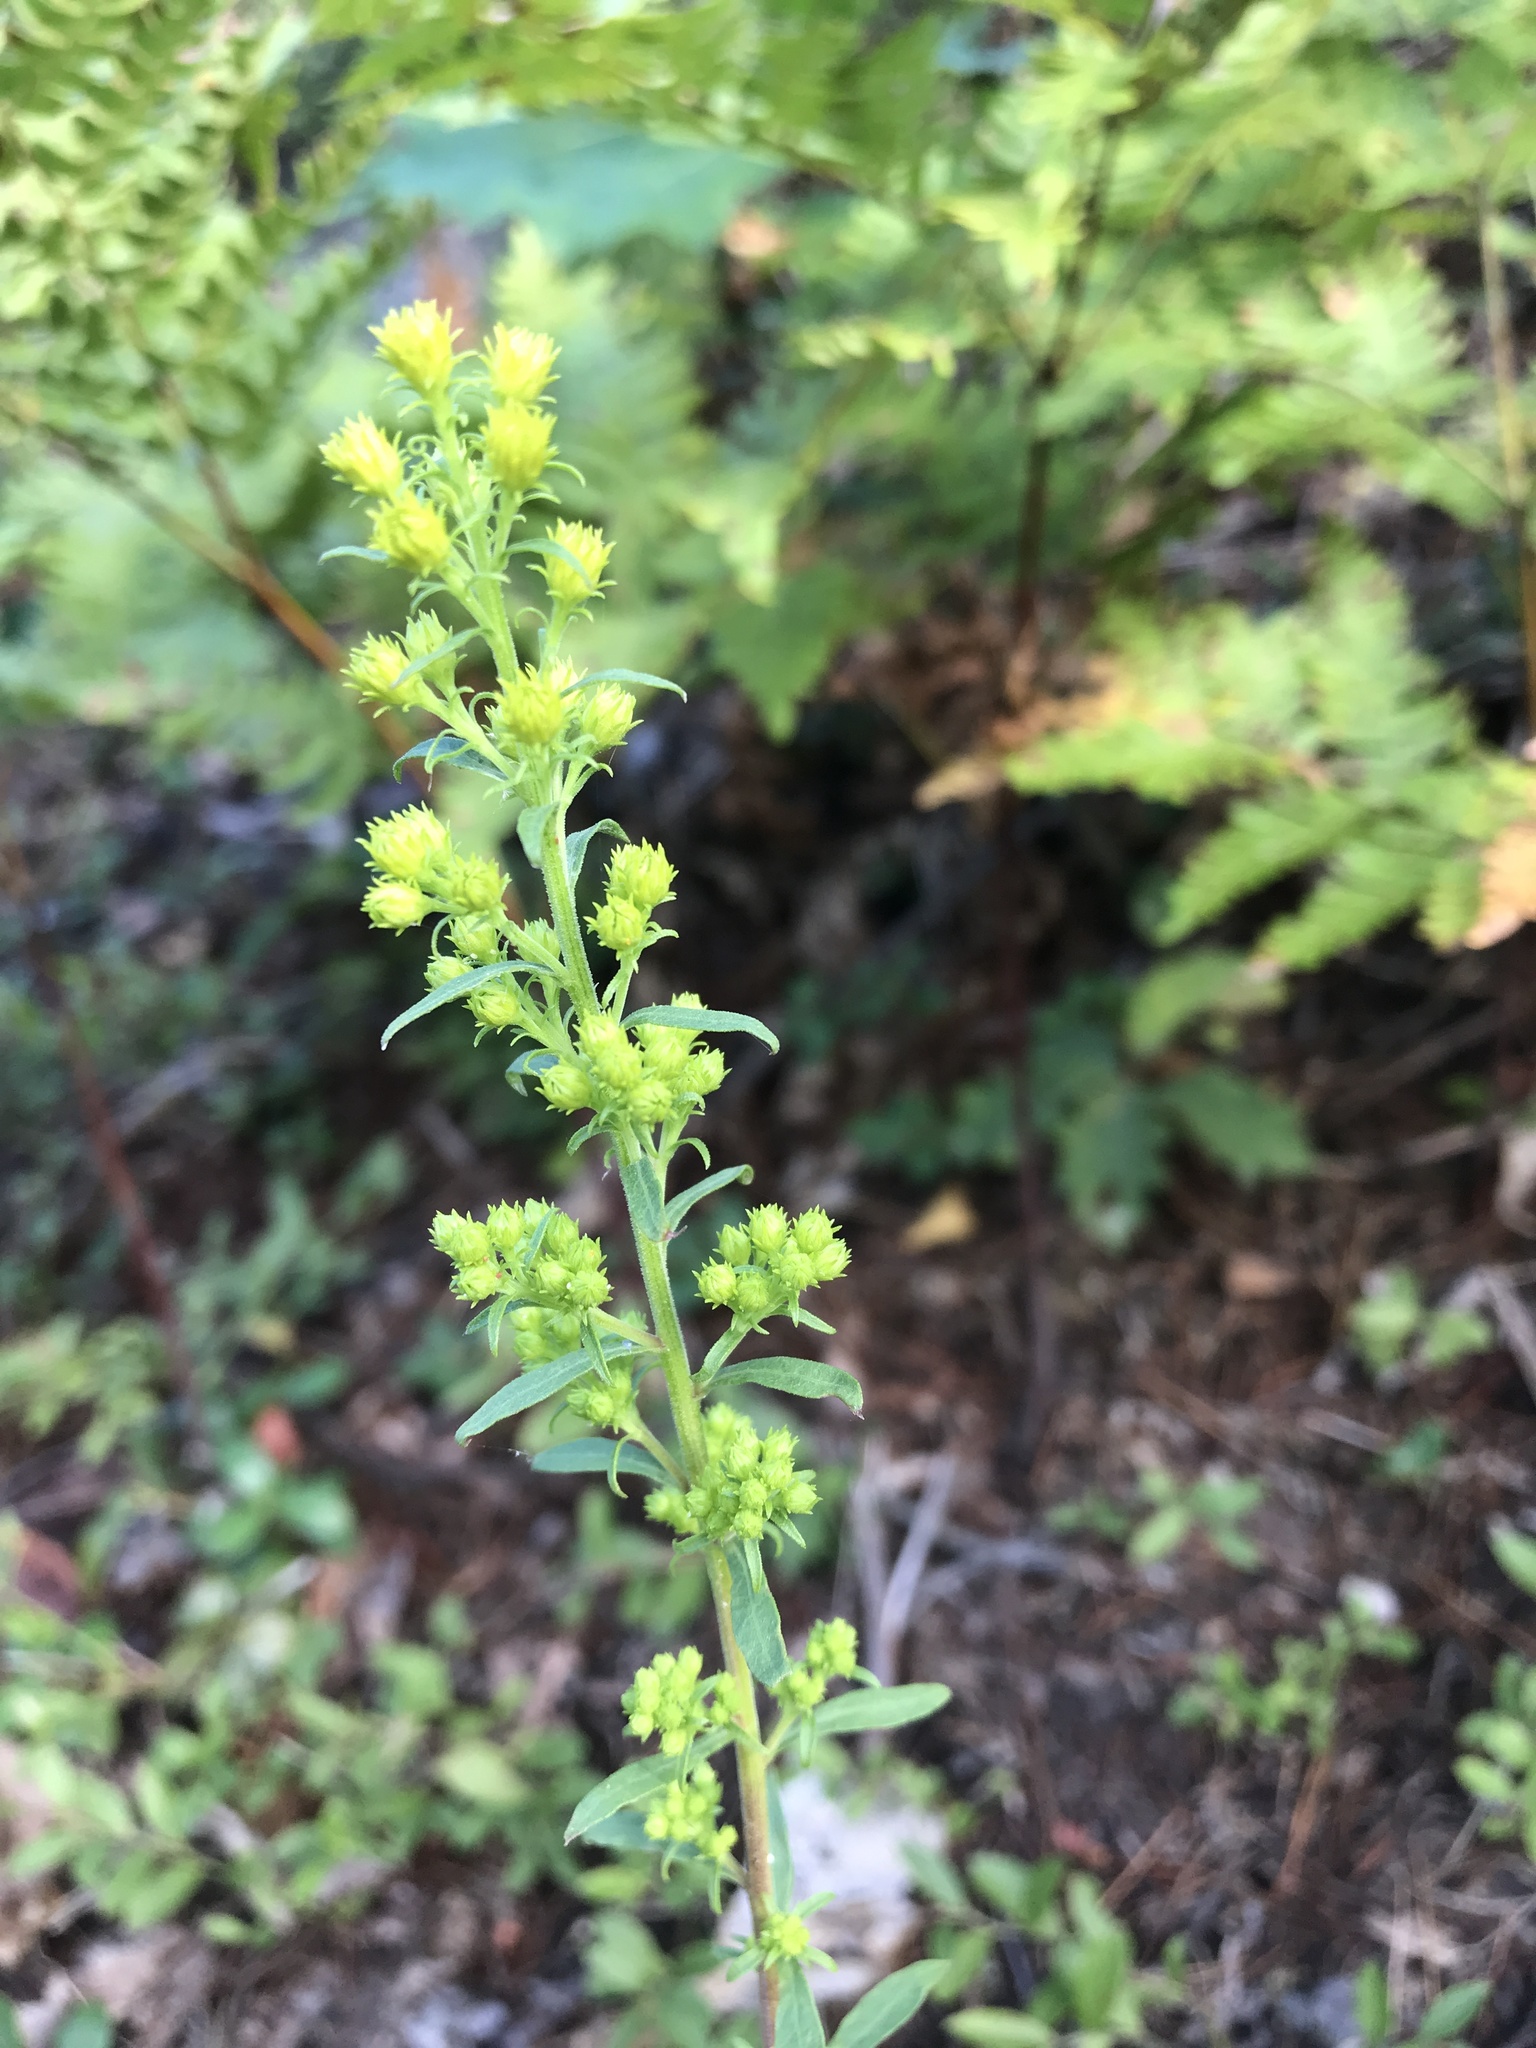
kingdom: Plantae
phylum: Tracheophyta
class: Magnoliopsida
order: Asterales
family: Asteraceae
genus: Solidago
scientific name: Solidago puberula
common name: Downy goldenrod
